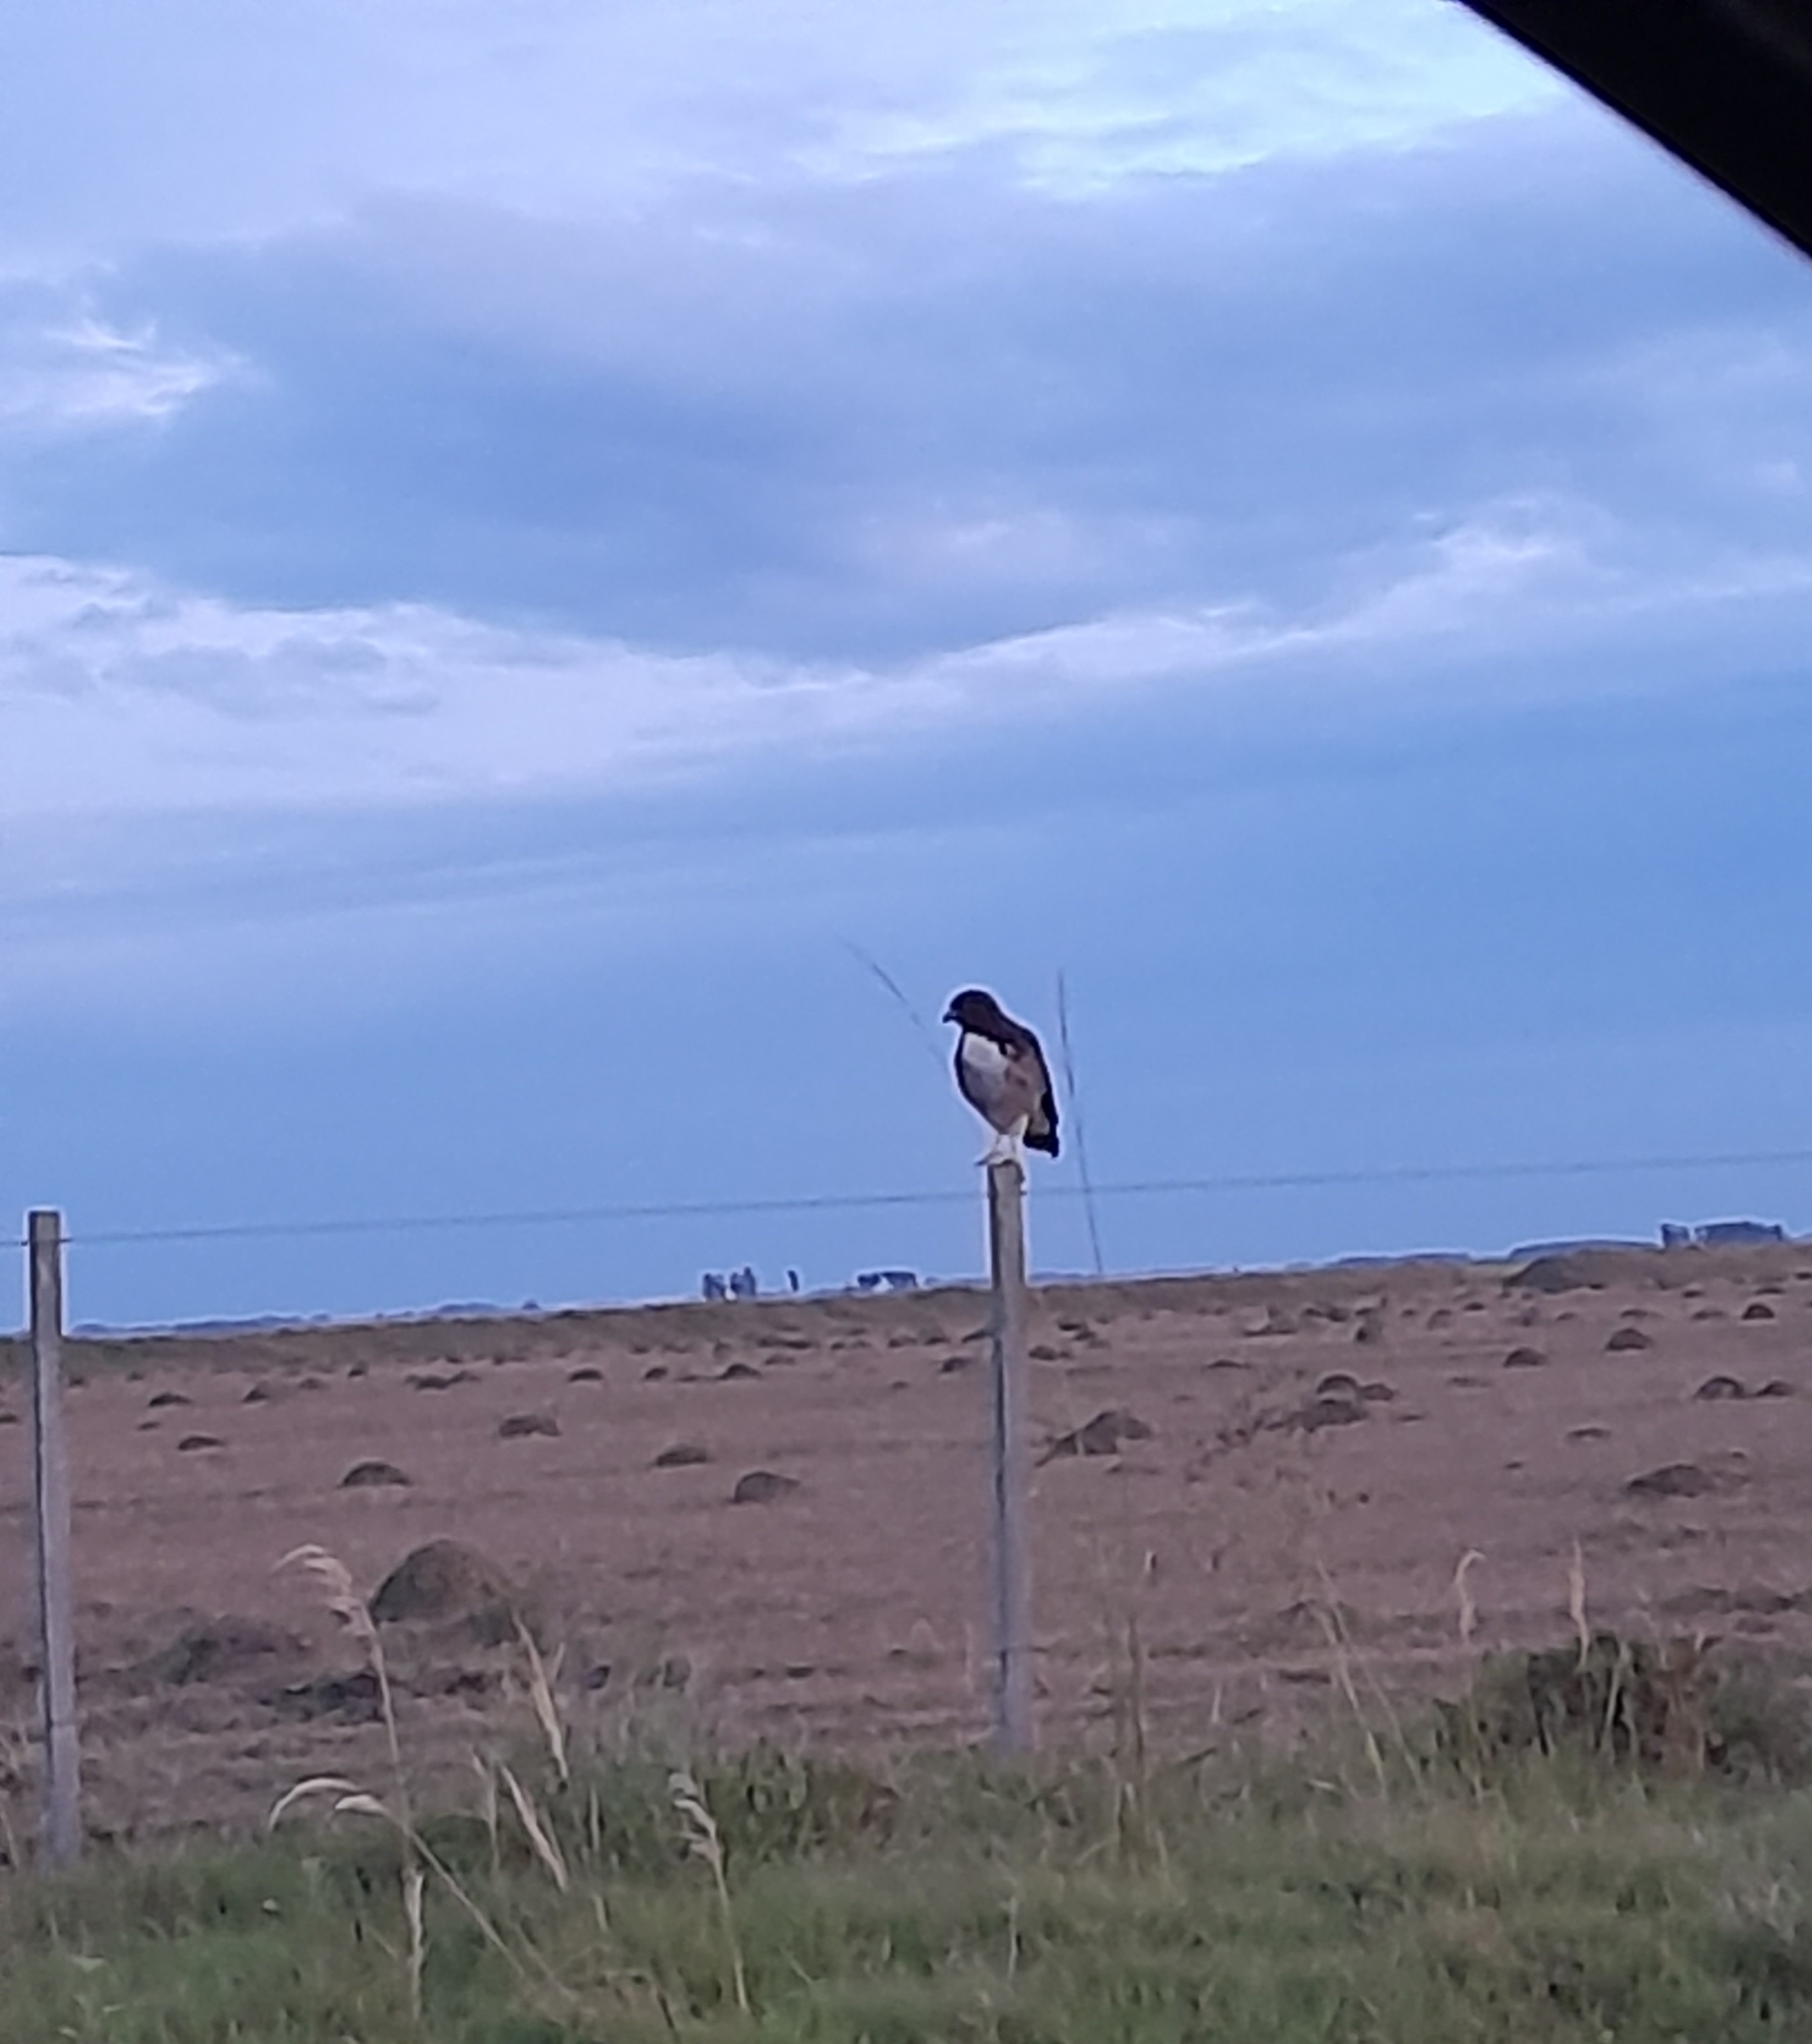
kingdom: Animalia
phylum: Chordata
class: Aves
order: Accipitriformes
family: Accipitridae
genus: Buteo
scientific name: Buteo albicaudatus
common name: White-tailed hawk
